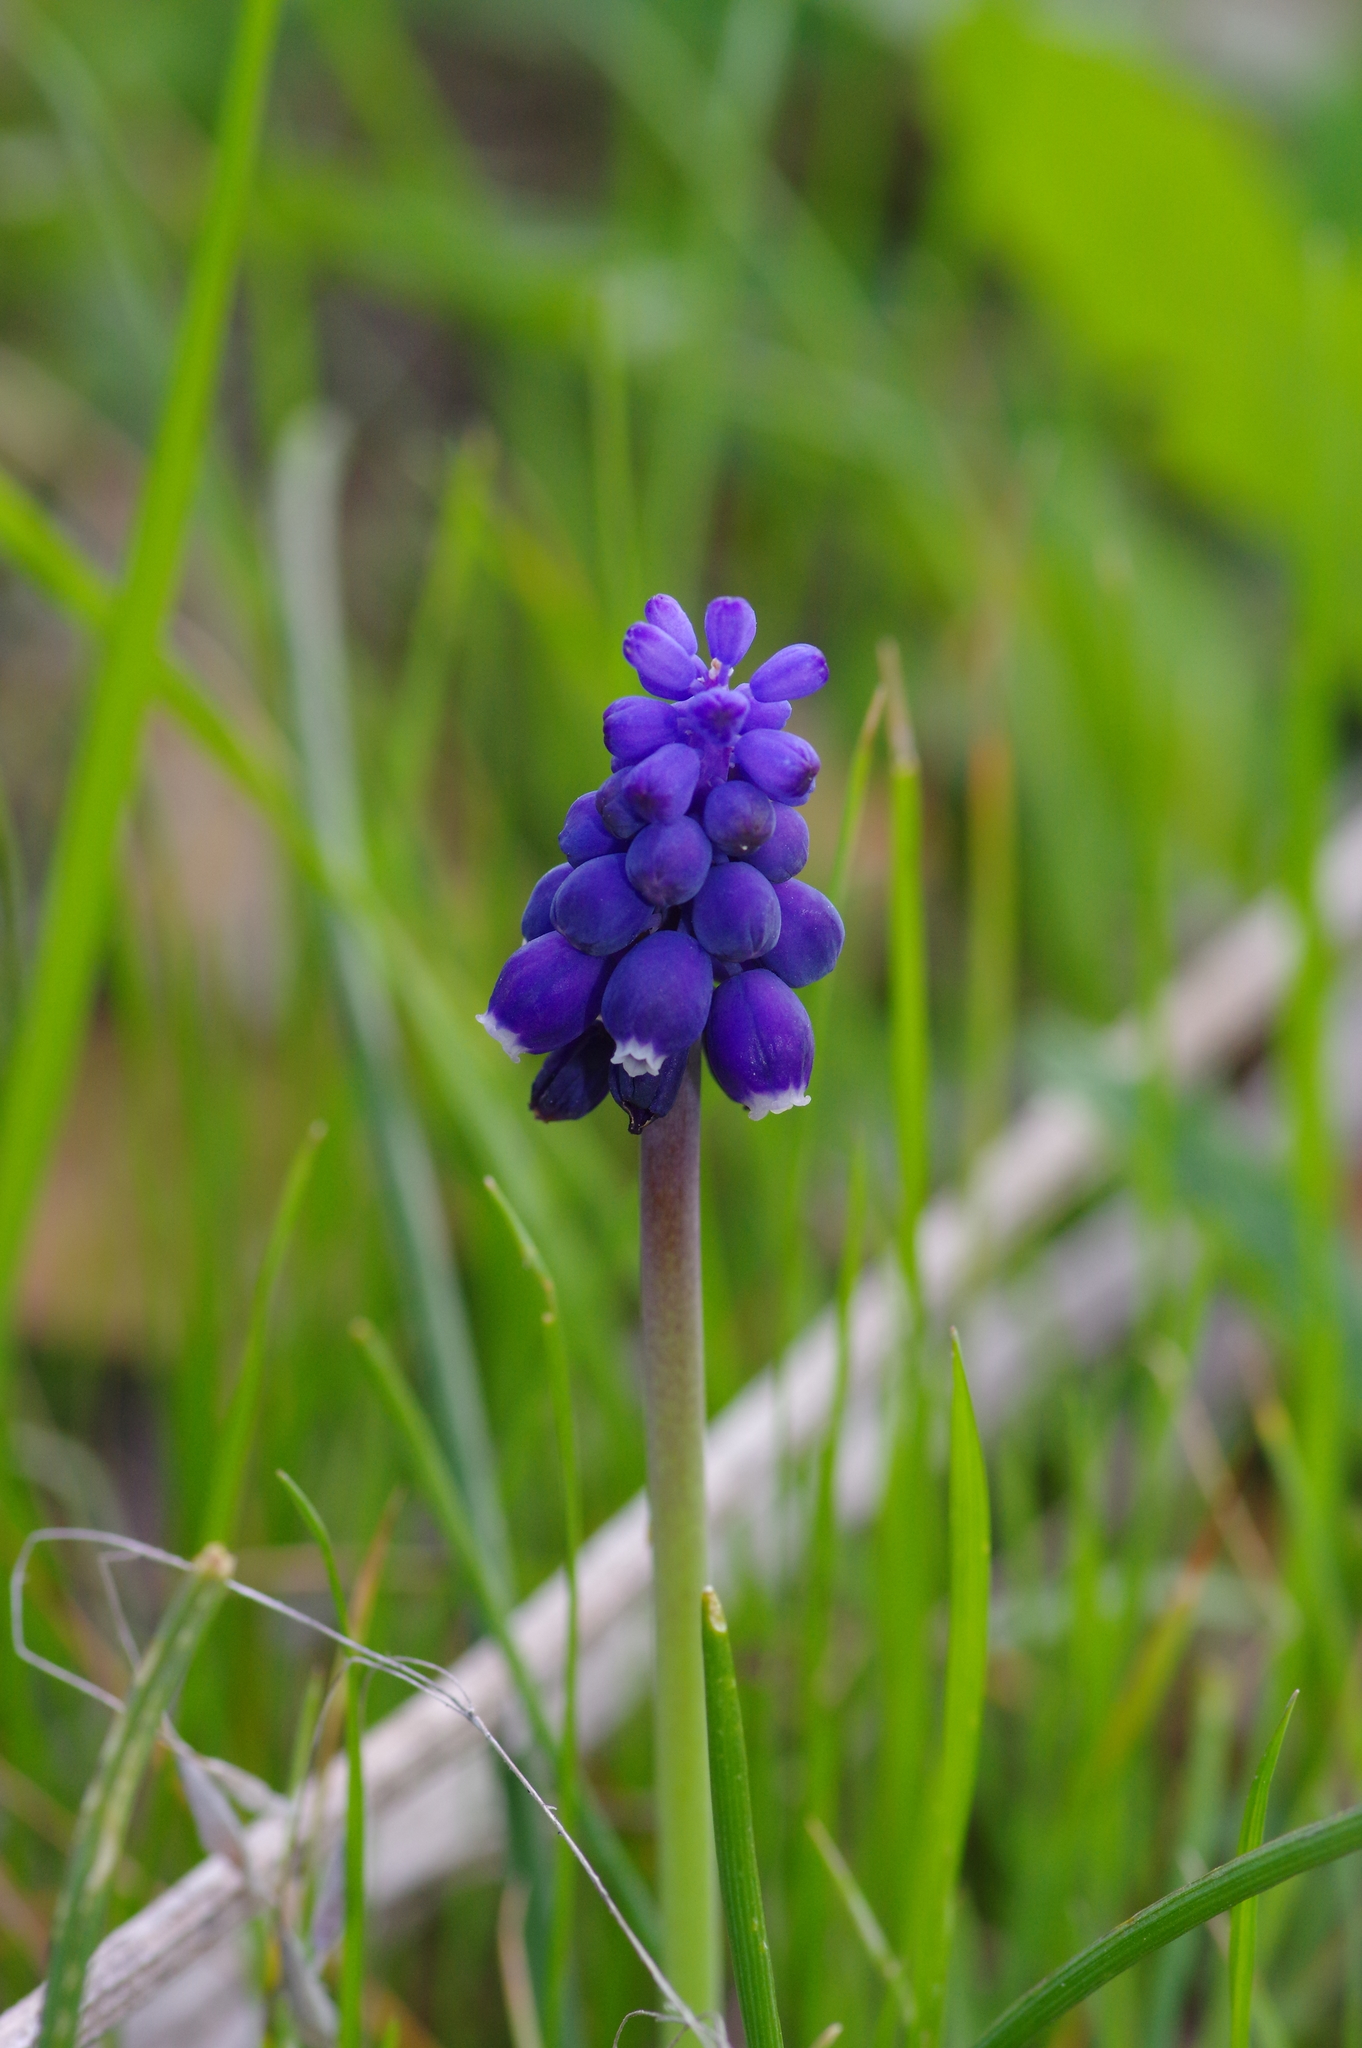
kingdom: Plantae
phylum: Tracheophyta
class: Liliopsida
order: Asparagales
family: Asparagaceae
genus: Muscari
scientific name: Muscari neglectum
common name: Grape-hyacinth
